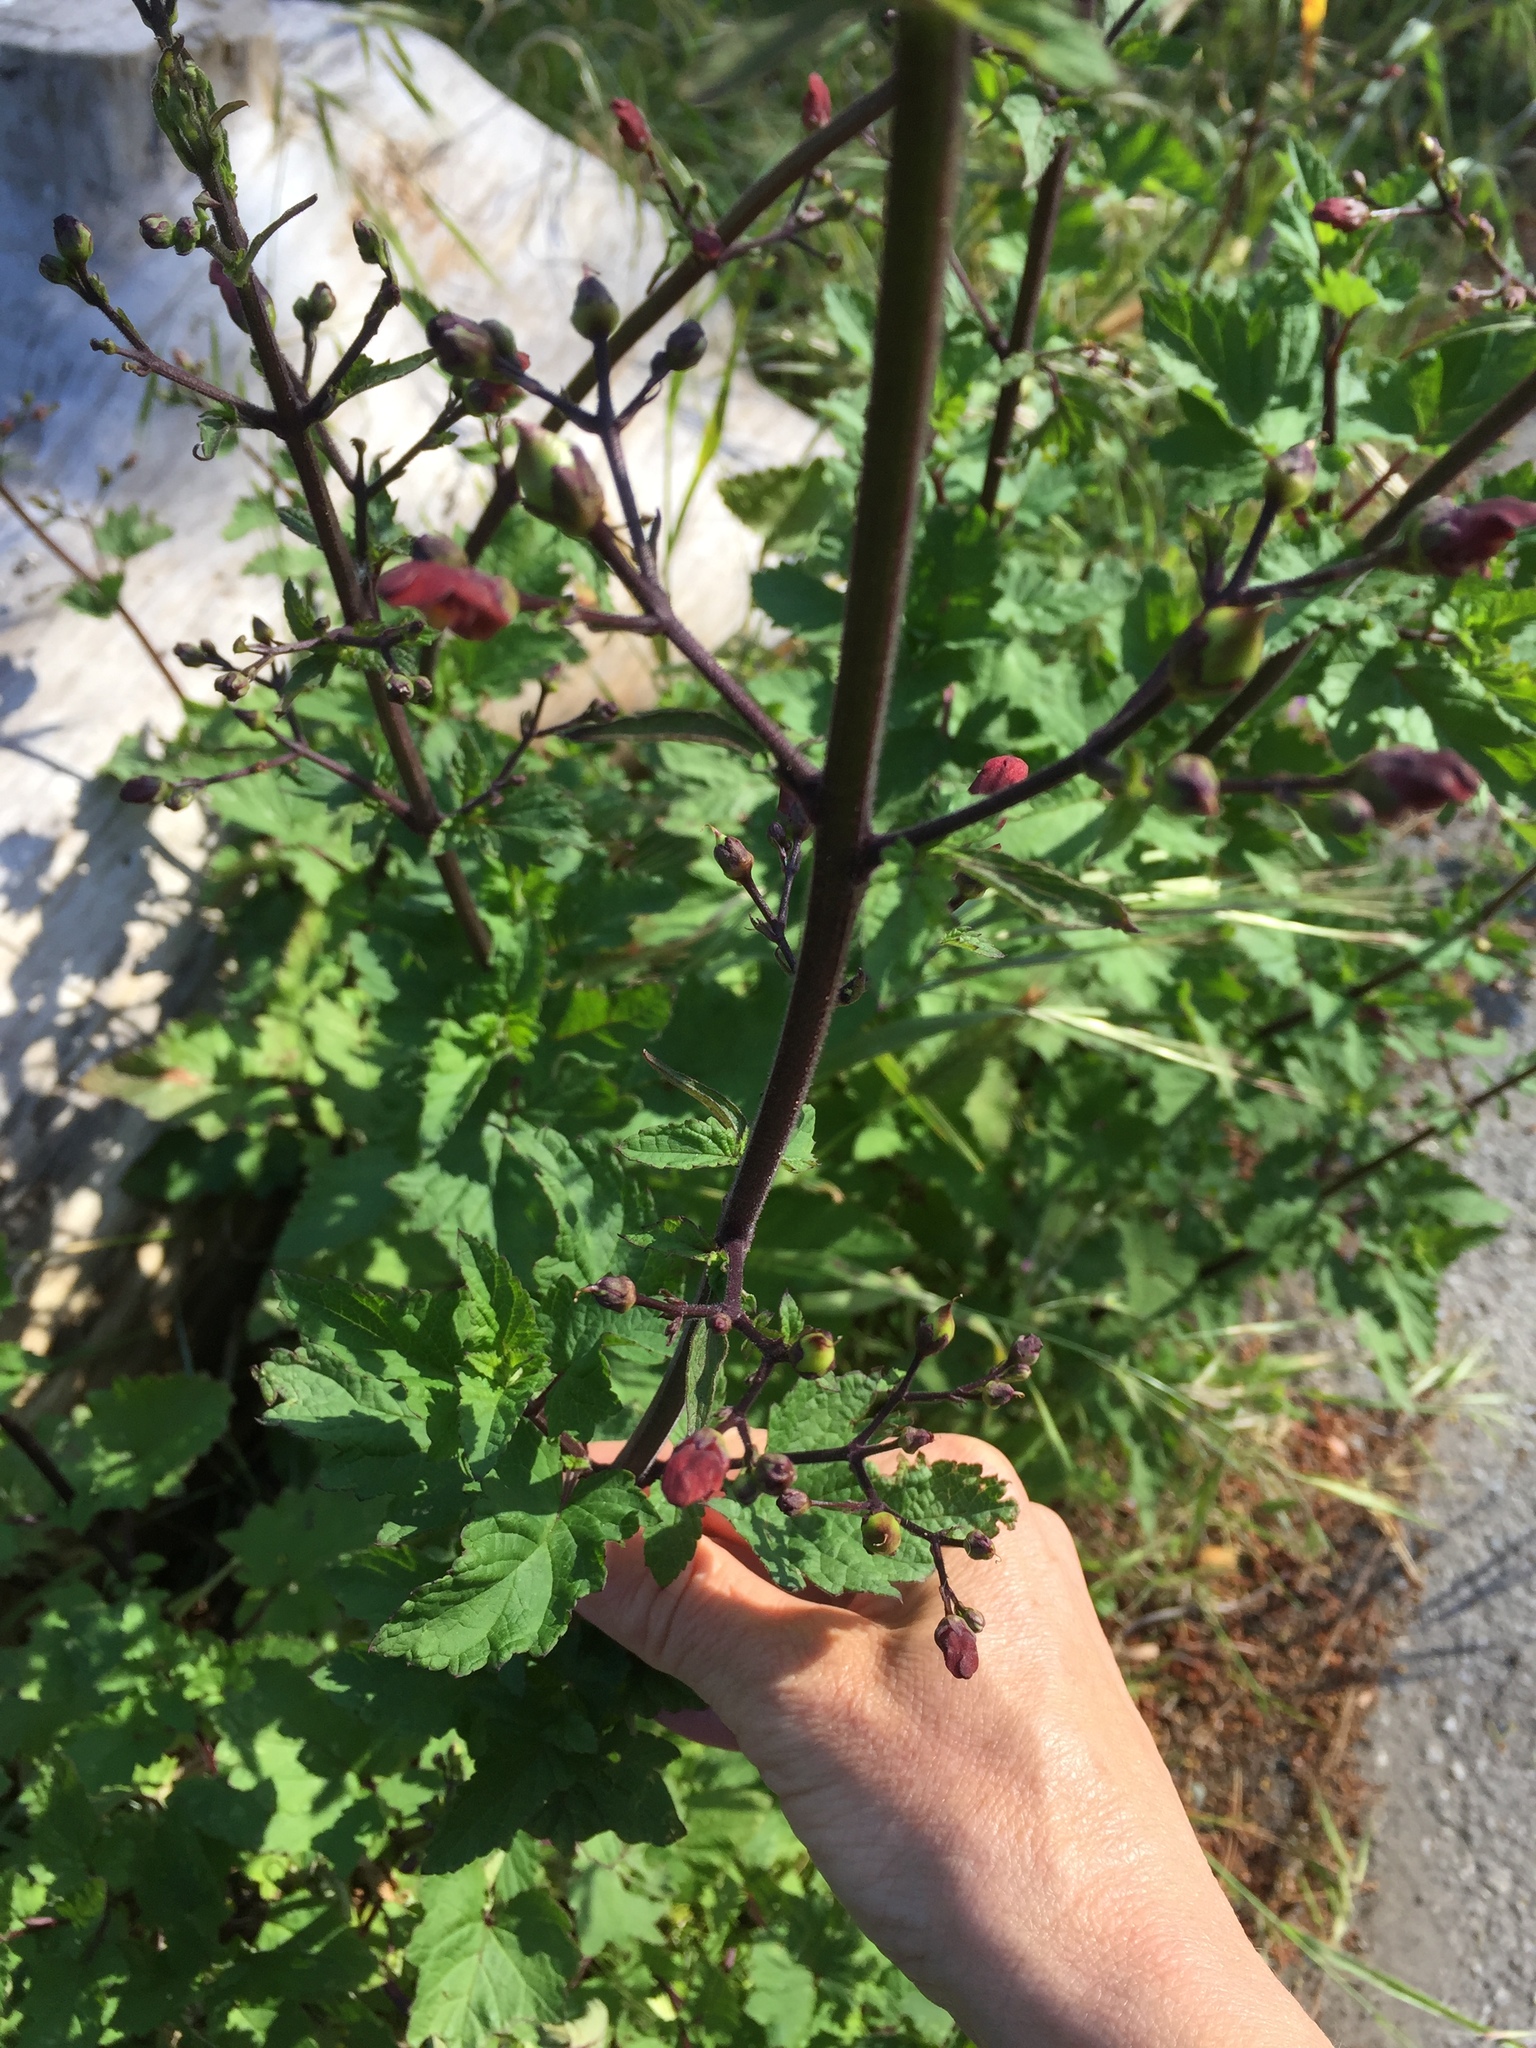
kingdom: Plantae
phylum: Tracheophyta
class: Magnoliopsida
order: Lamiales
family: Scrophulariaceae
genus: Scrophularia
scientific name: Scrophularia californica
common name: California figwort
